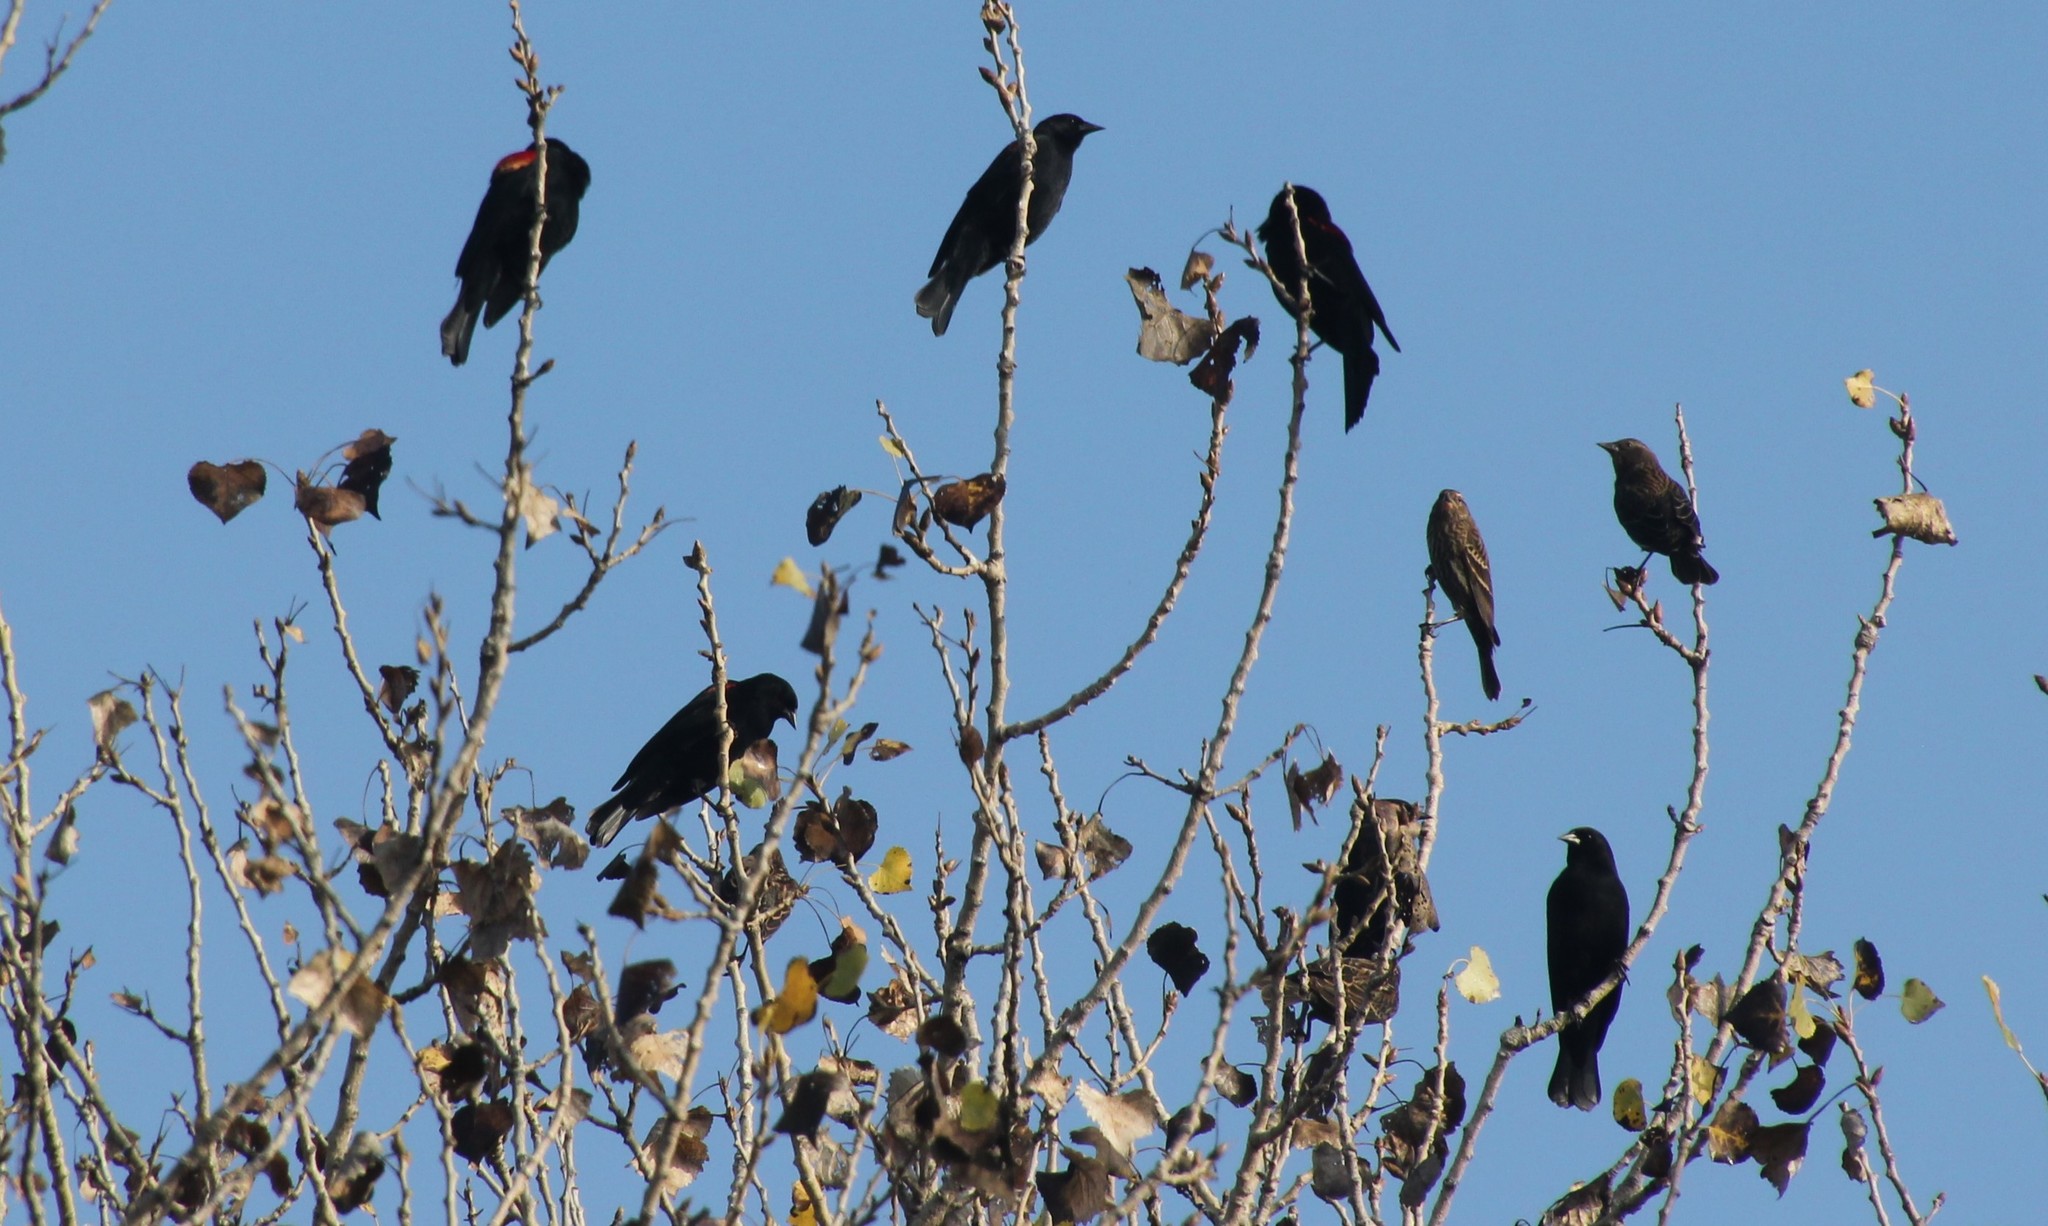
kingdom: Animalia
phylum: Chordata
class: Aves
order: Passeriformes
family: Icteridae
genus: Agelaius
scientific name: Agelaius phoeniceus
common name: Red-winged blackbird
